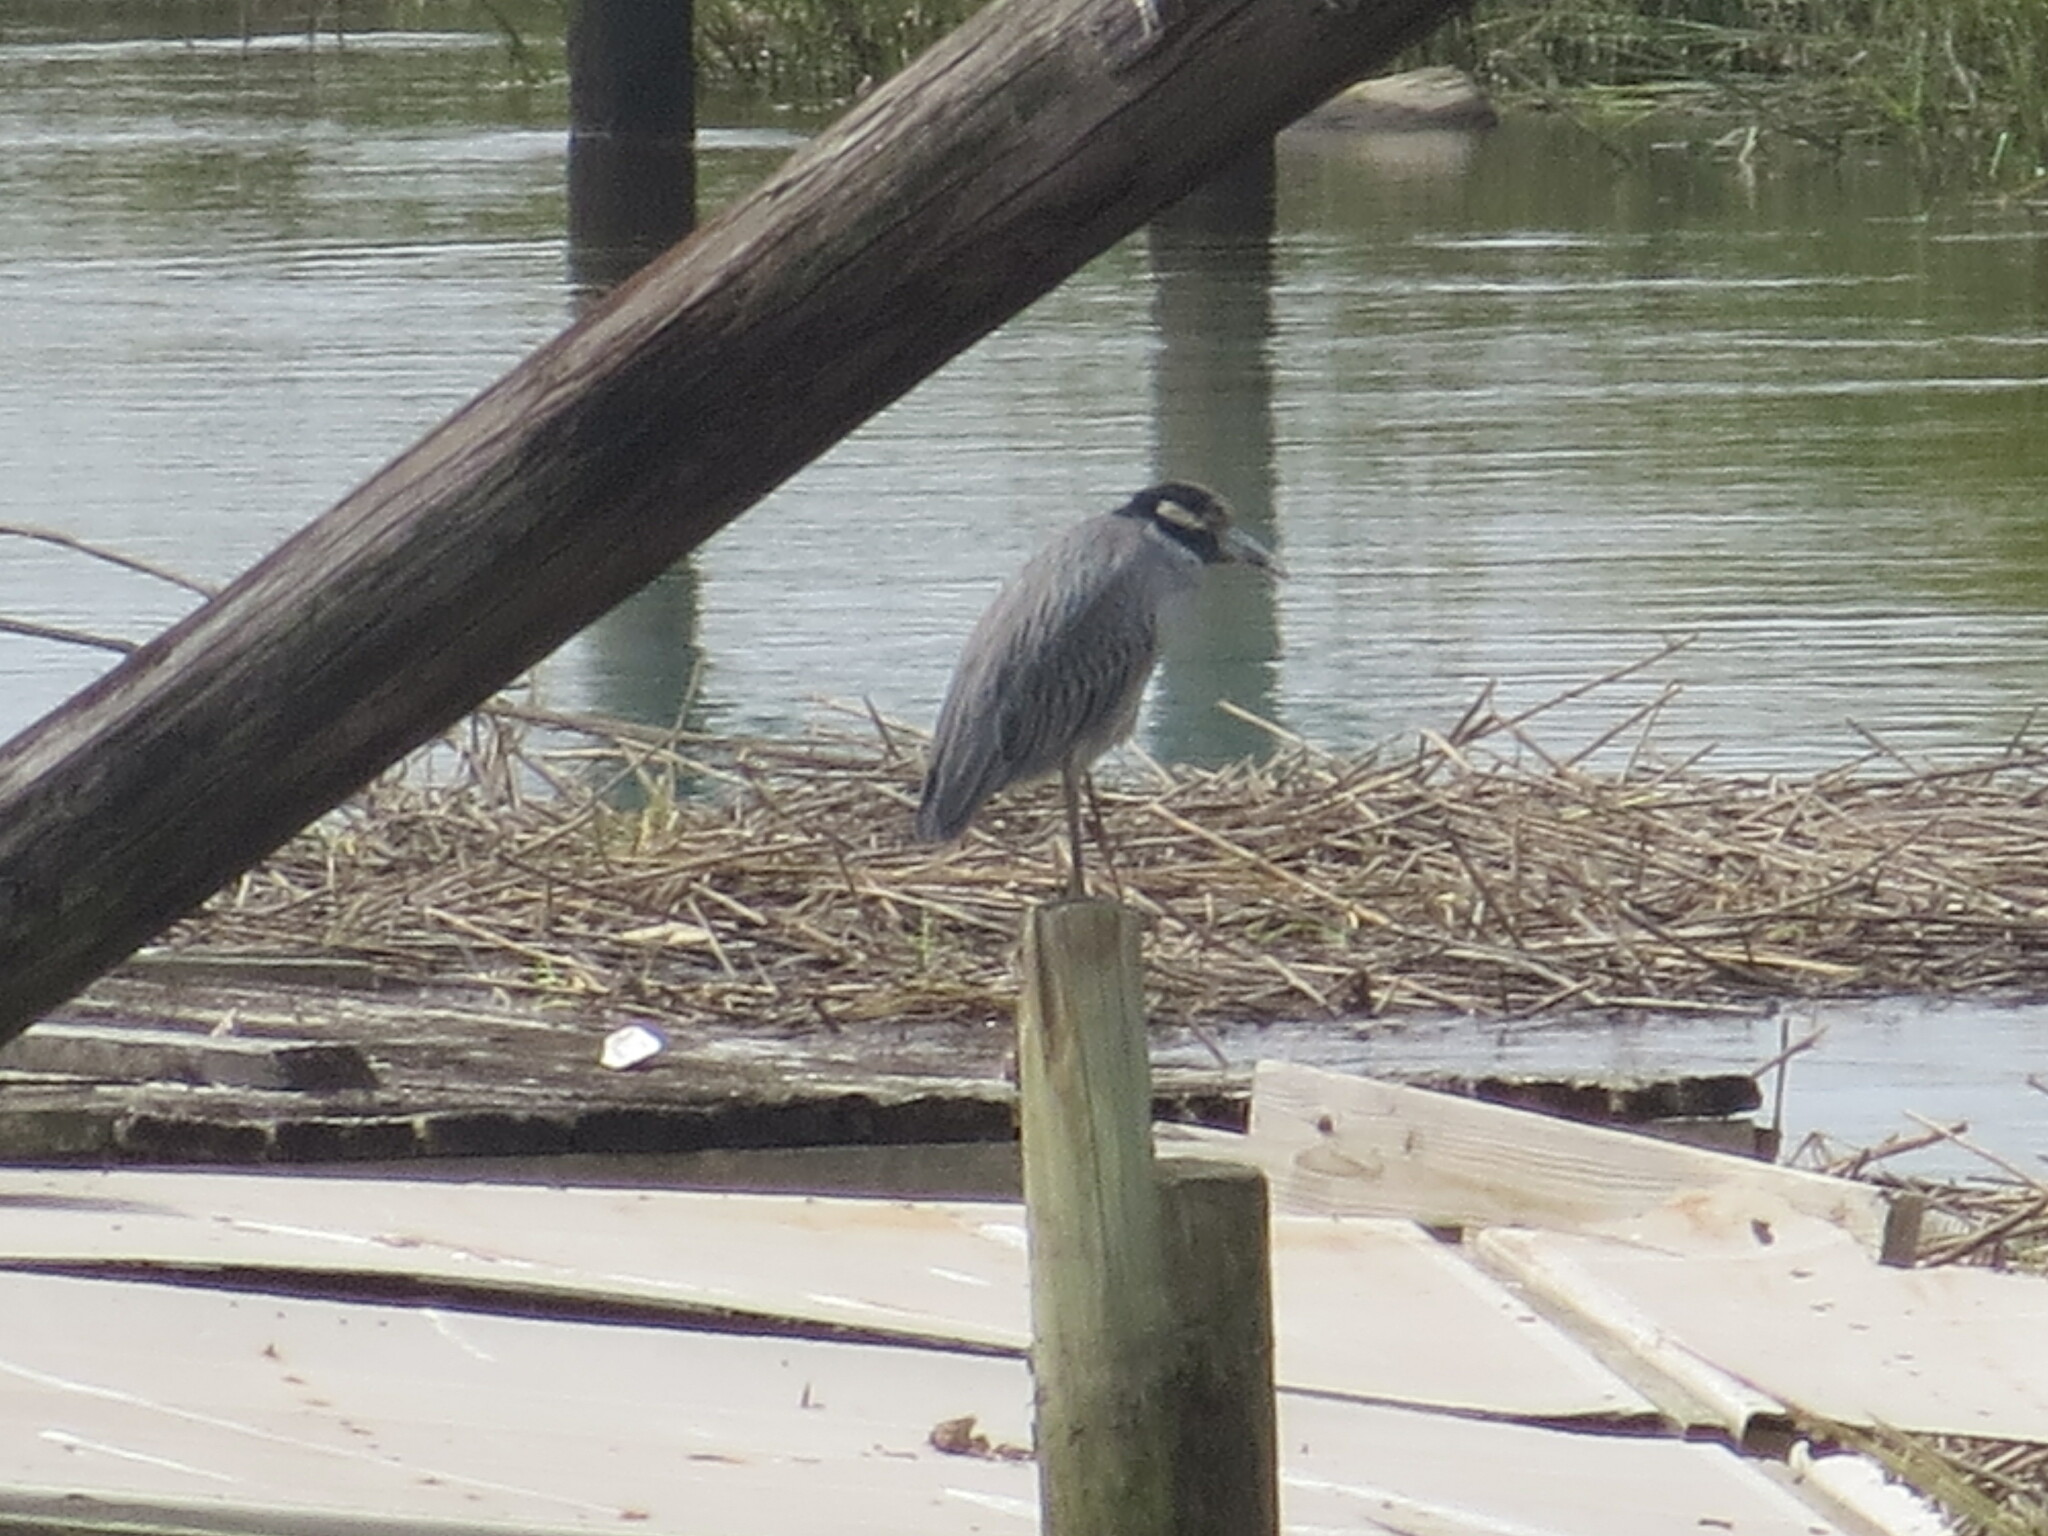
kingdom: Animalia
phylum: Chordata
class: Aves
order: Pelecaniformes
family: Ardeidae
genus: Nyctanassa
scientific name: Nyctanassa violacea
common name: Yellow-crowned night heron
